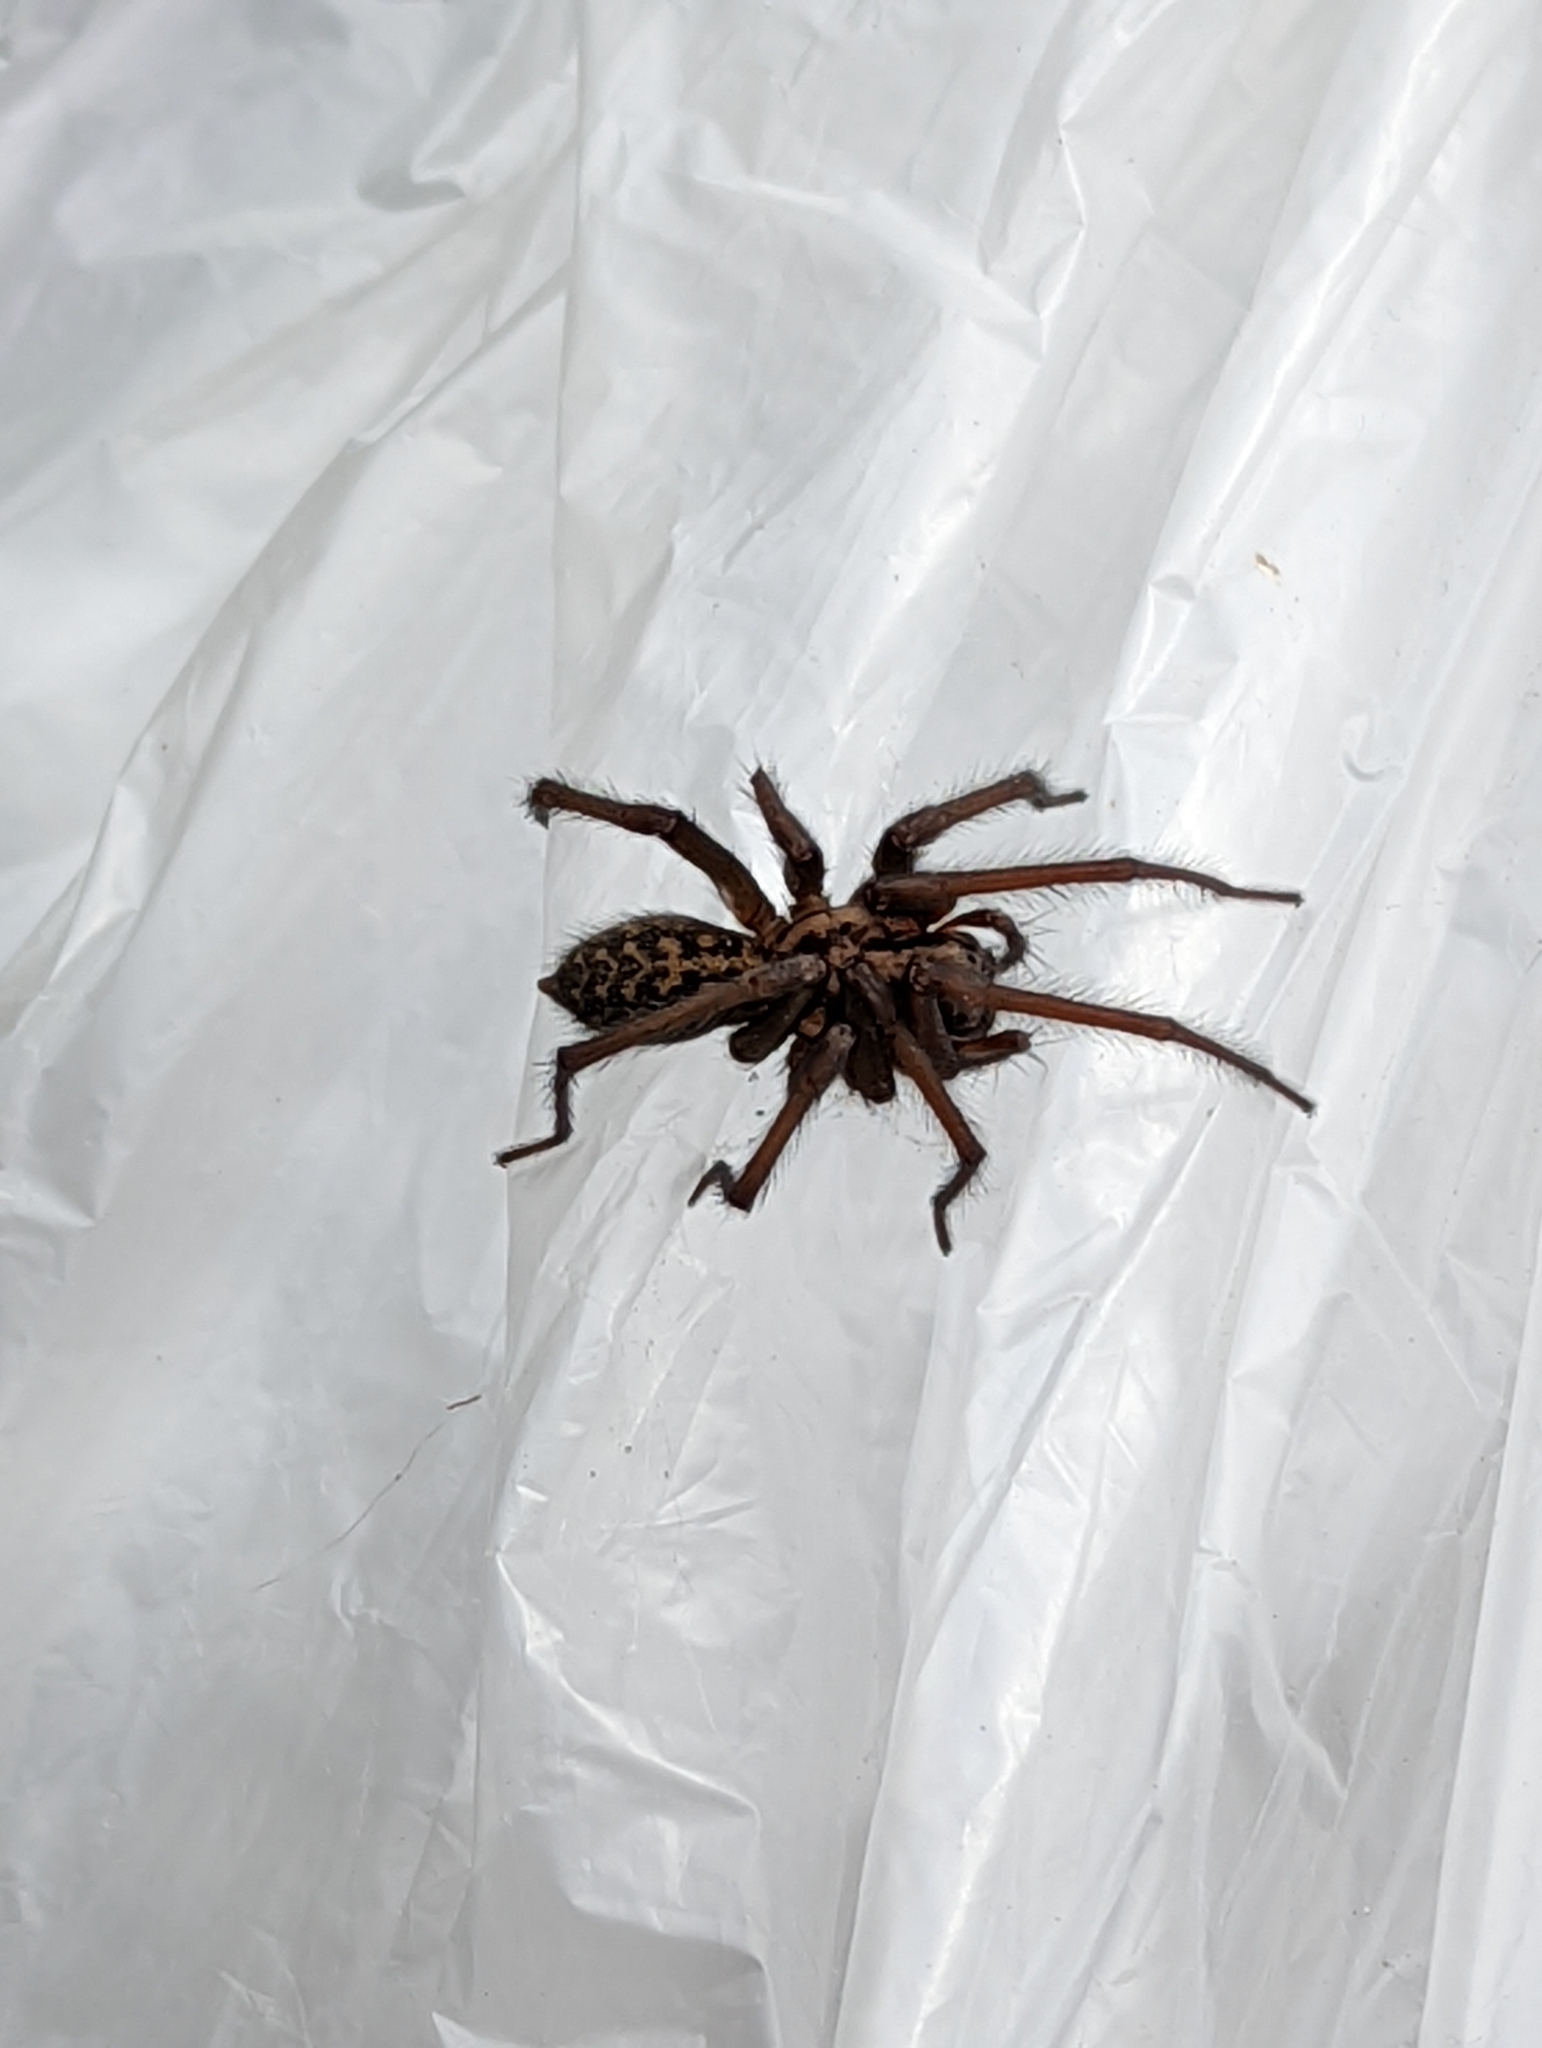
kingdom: Animalia
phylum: Arthropoda
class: Arachnida
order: Araneae
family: Agelenidae
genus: Eratigena
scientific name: Eratigena duellica
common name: Giant house spider
